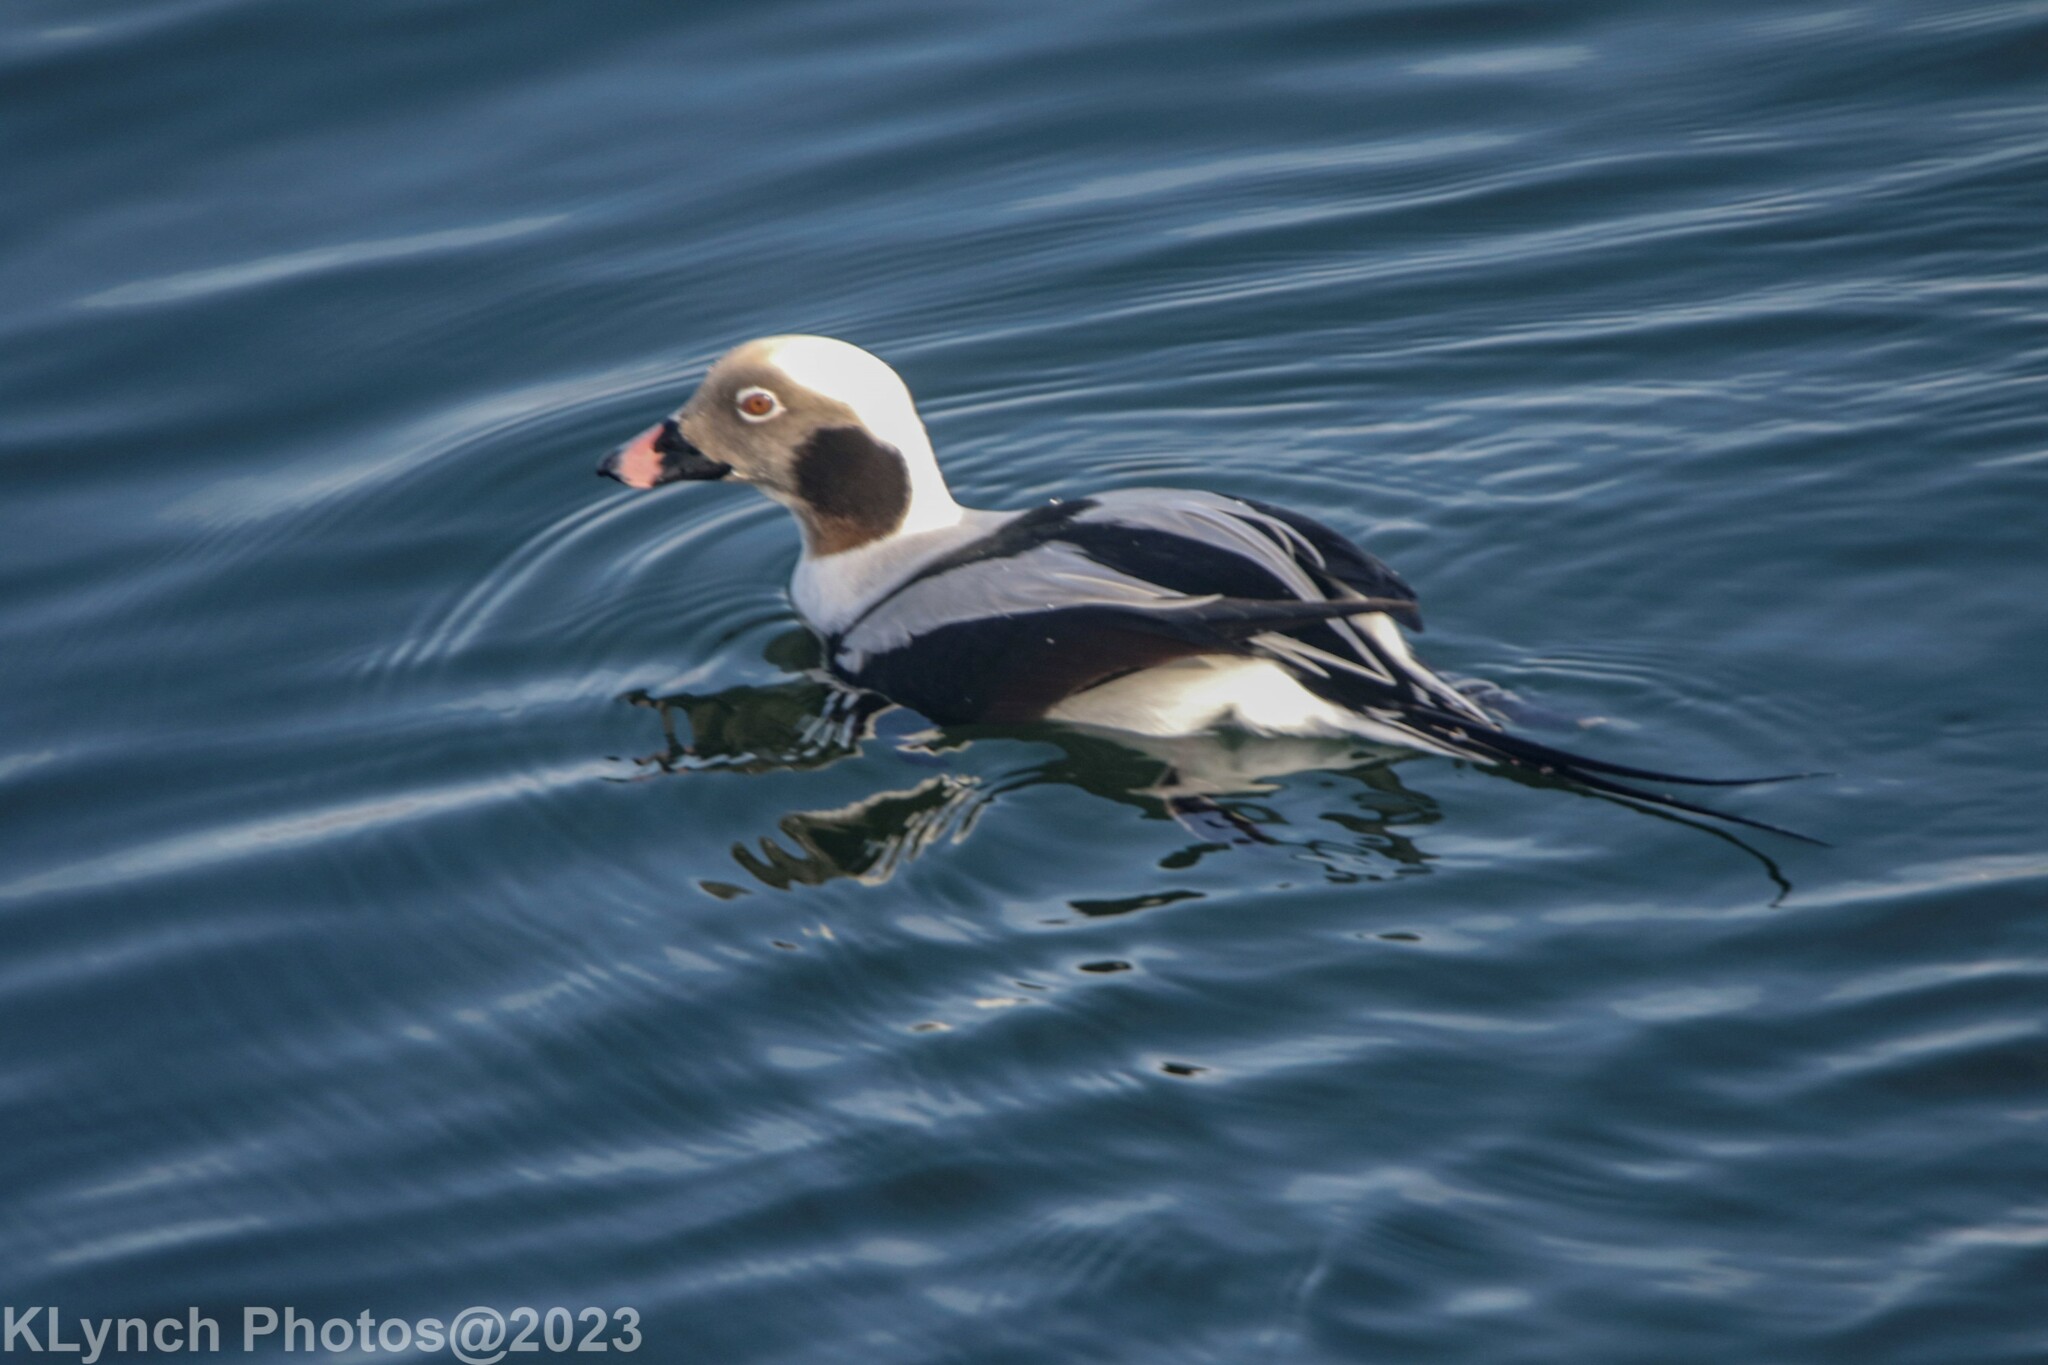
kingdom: Animalia
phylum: Chordata
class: Aves
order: Anseriformes
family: Anatidae
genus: Clangula
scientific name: Clangula hyemalis
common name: Long-tailed duck
